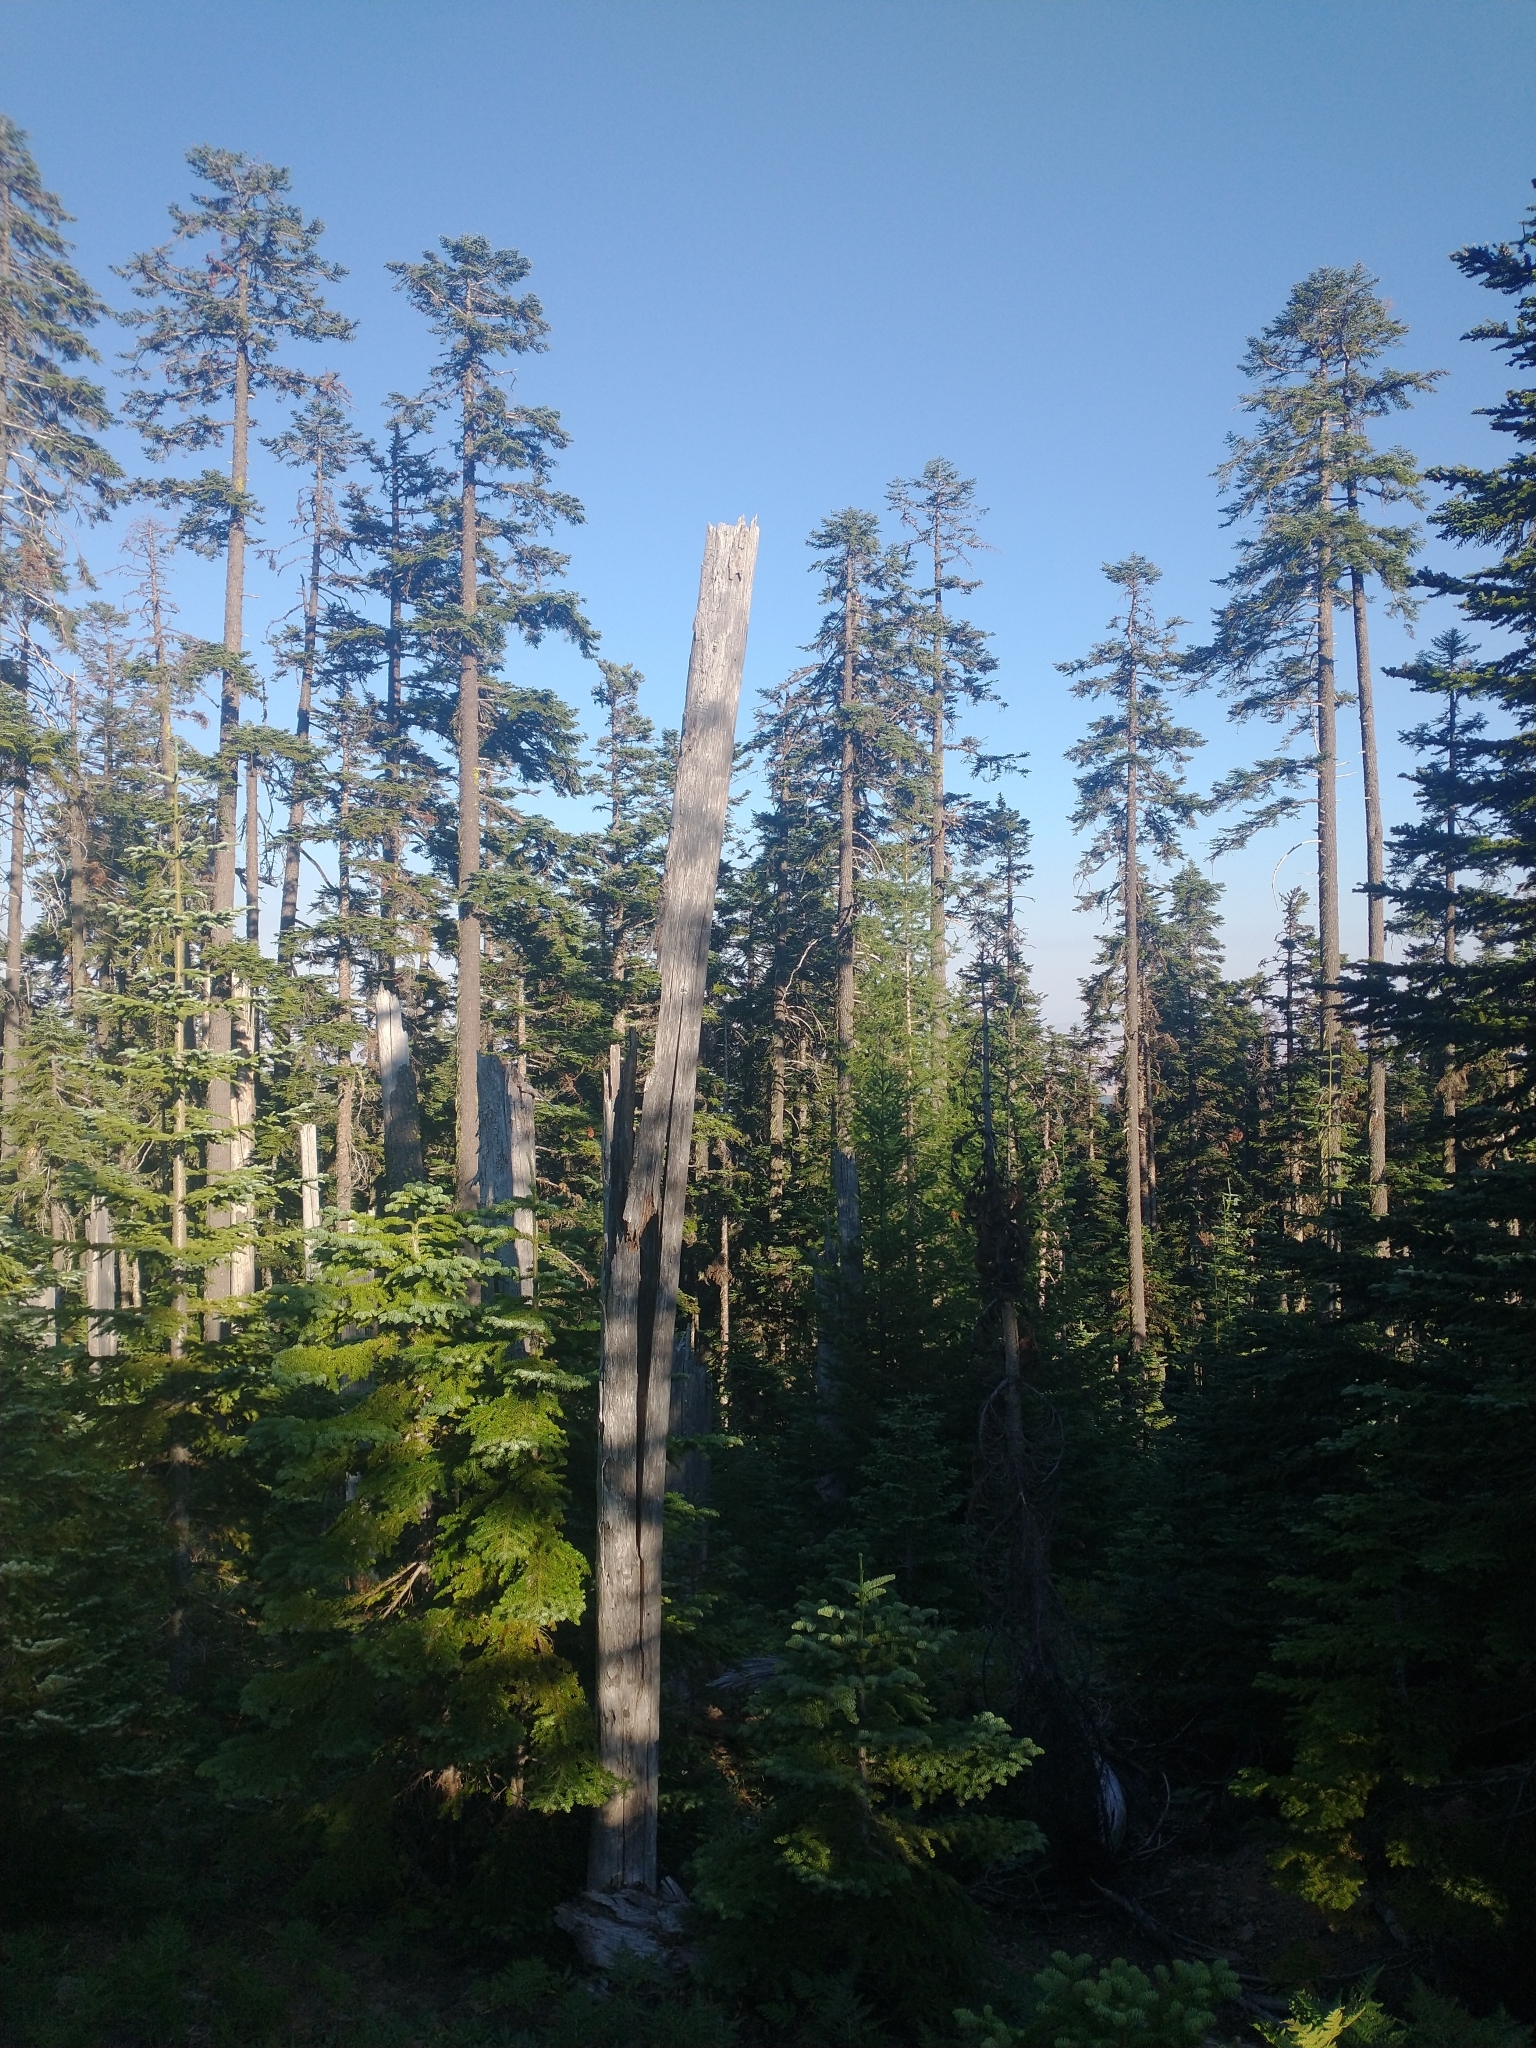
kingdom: Plantae
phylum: Tracheophyta
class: Pinopsida
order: Pinales
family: Pinaceae
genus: Abies
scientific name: Abies procera
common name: Noble fir
